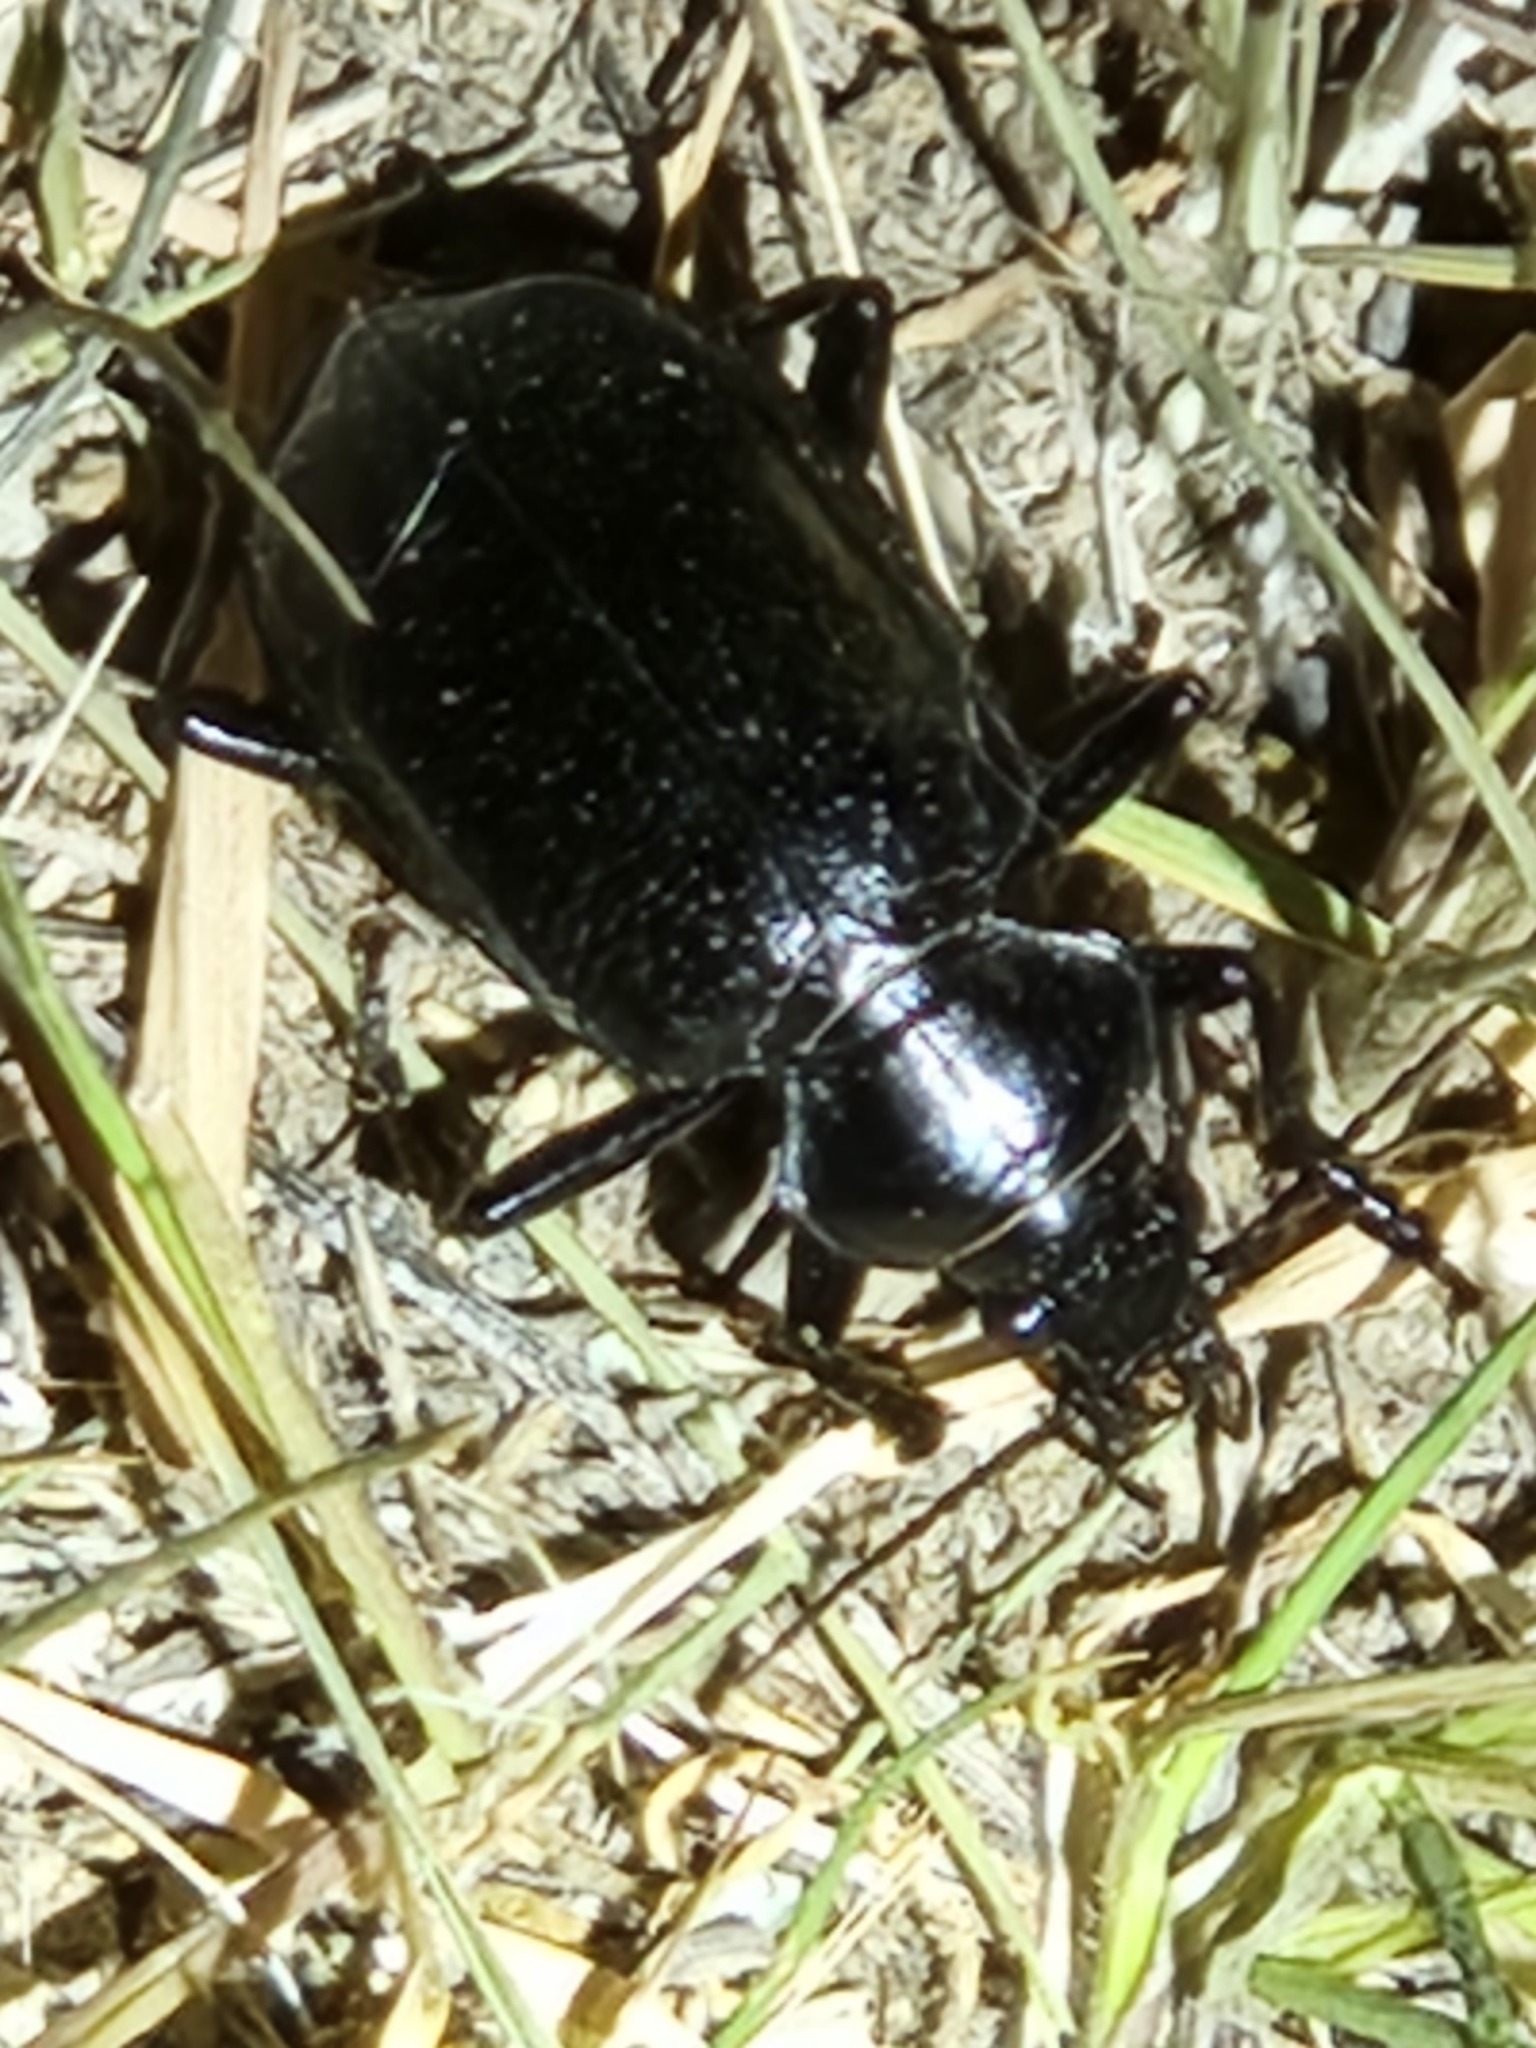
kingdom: Animalia
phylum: Arthropoda
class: Insecta
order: Coleoptera
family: Carabidae
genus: Calosoma
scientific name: Calosoma marginale
